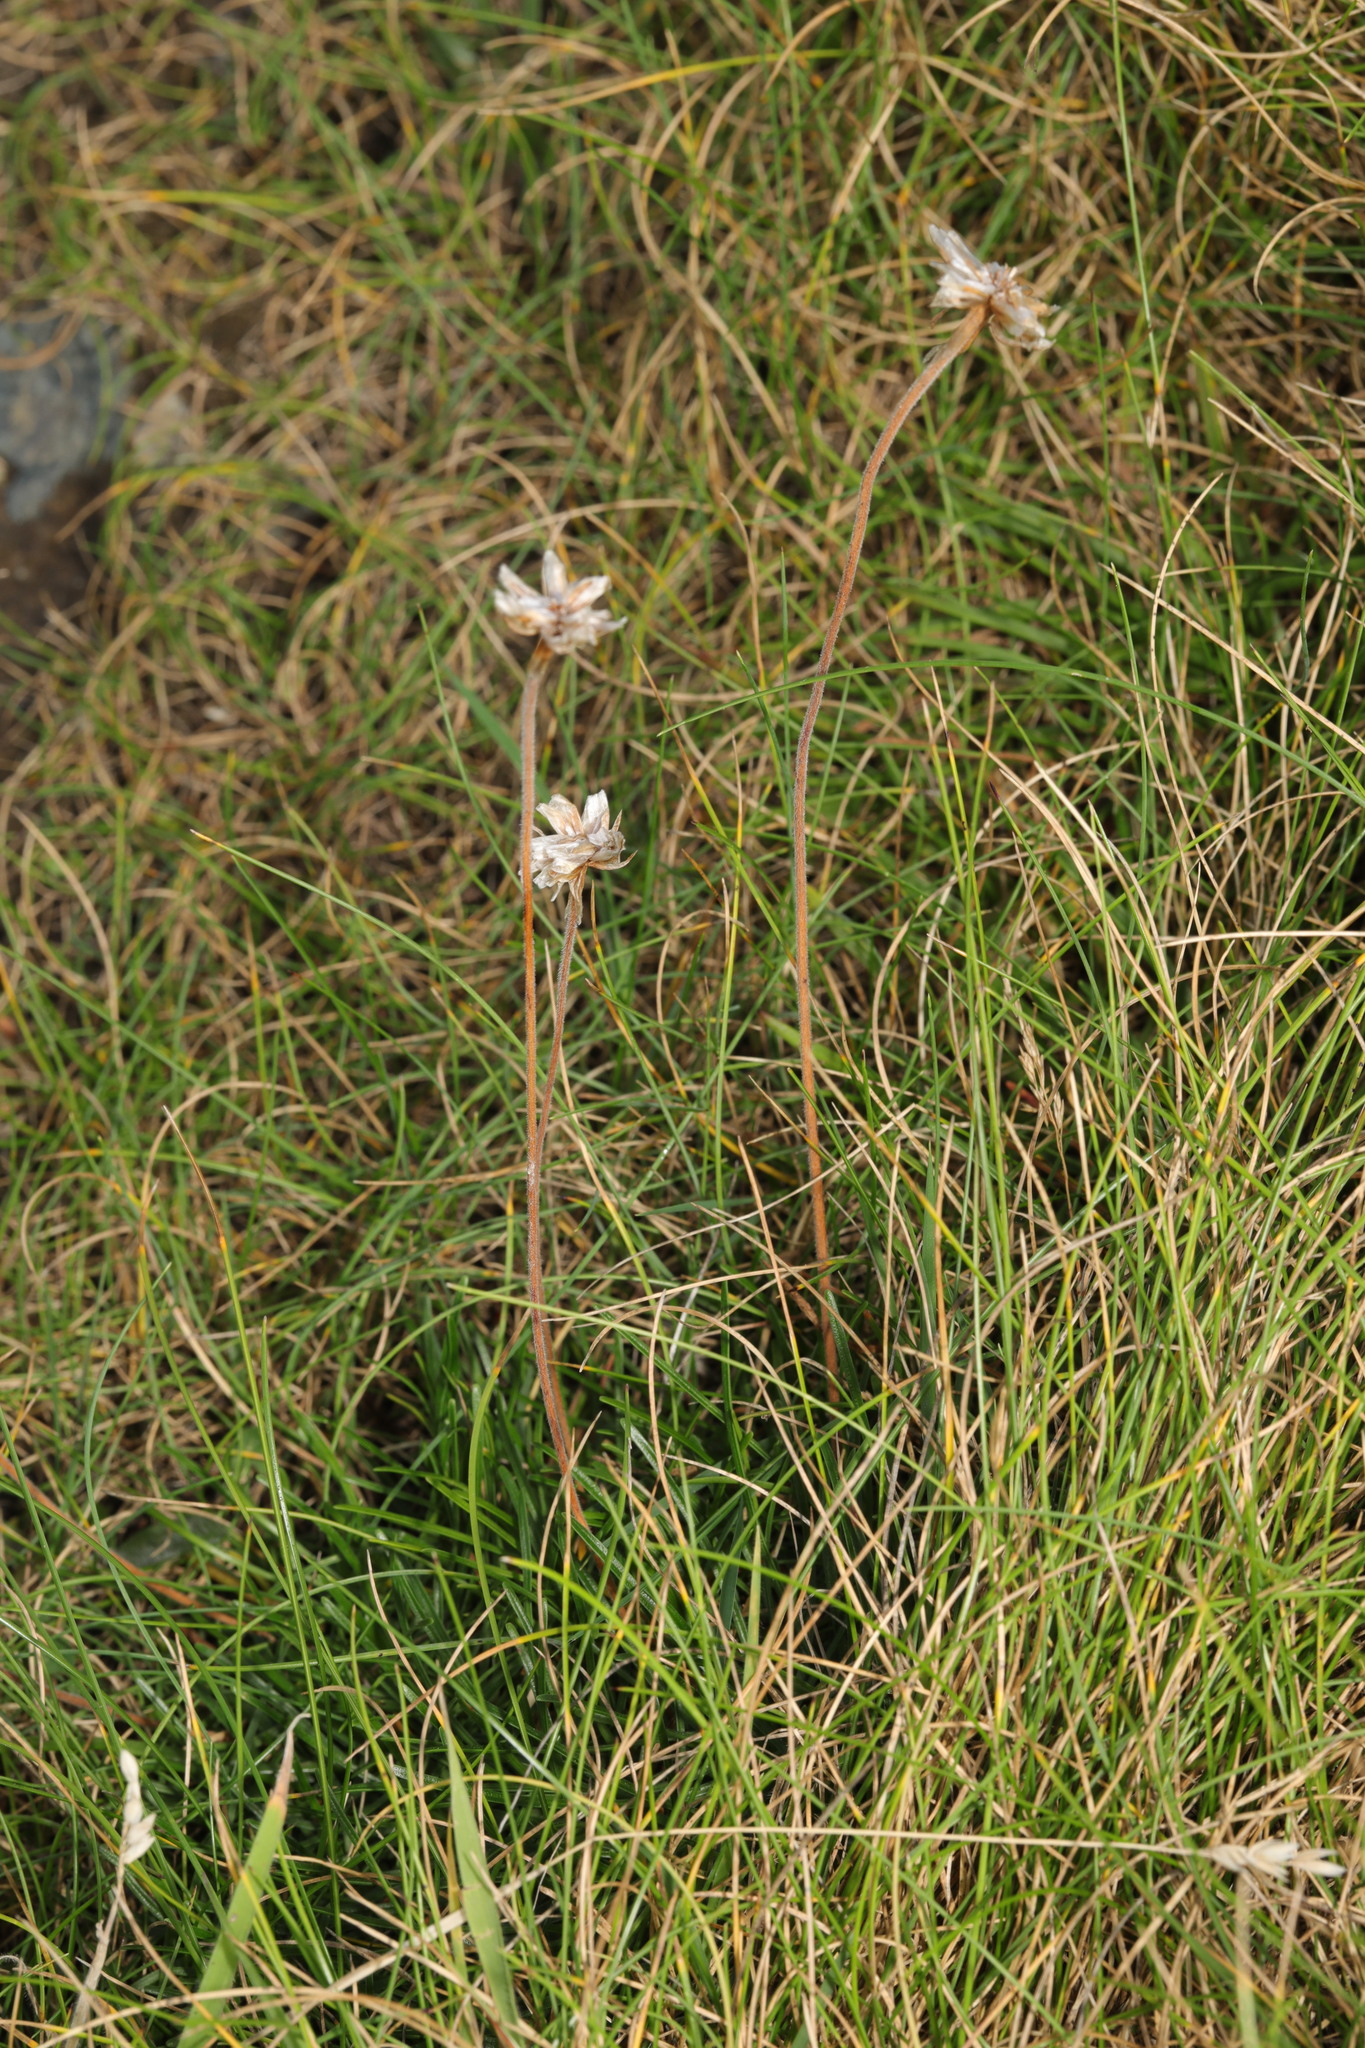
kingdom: Plantae
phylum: Tracheophyta
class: Magnoliopsida
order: Caryophyllales
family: Plumbaginaceae
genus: Armeria
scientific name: Armeria maritima
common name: Thrift
